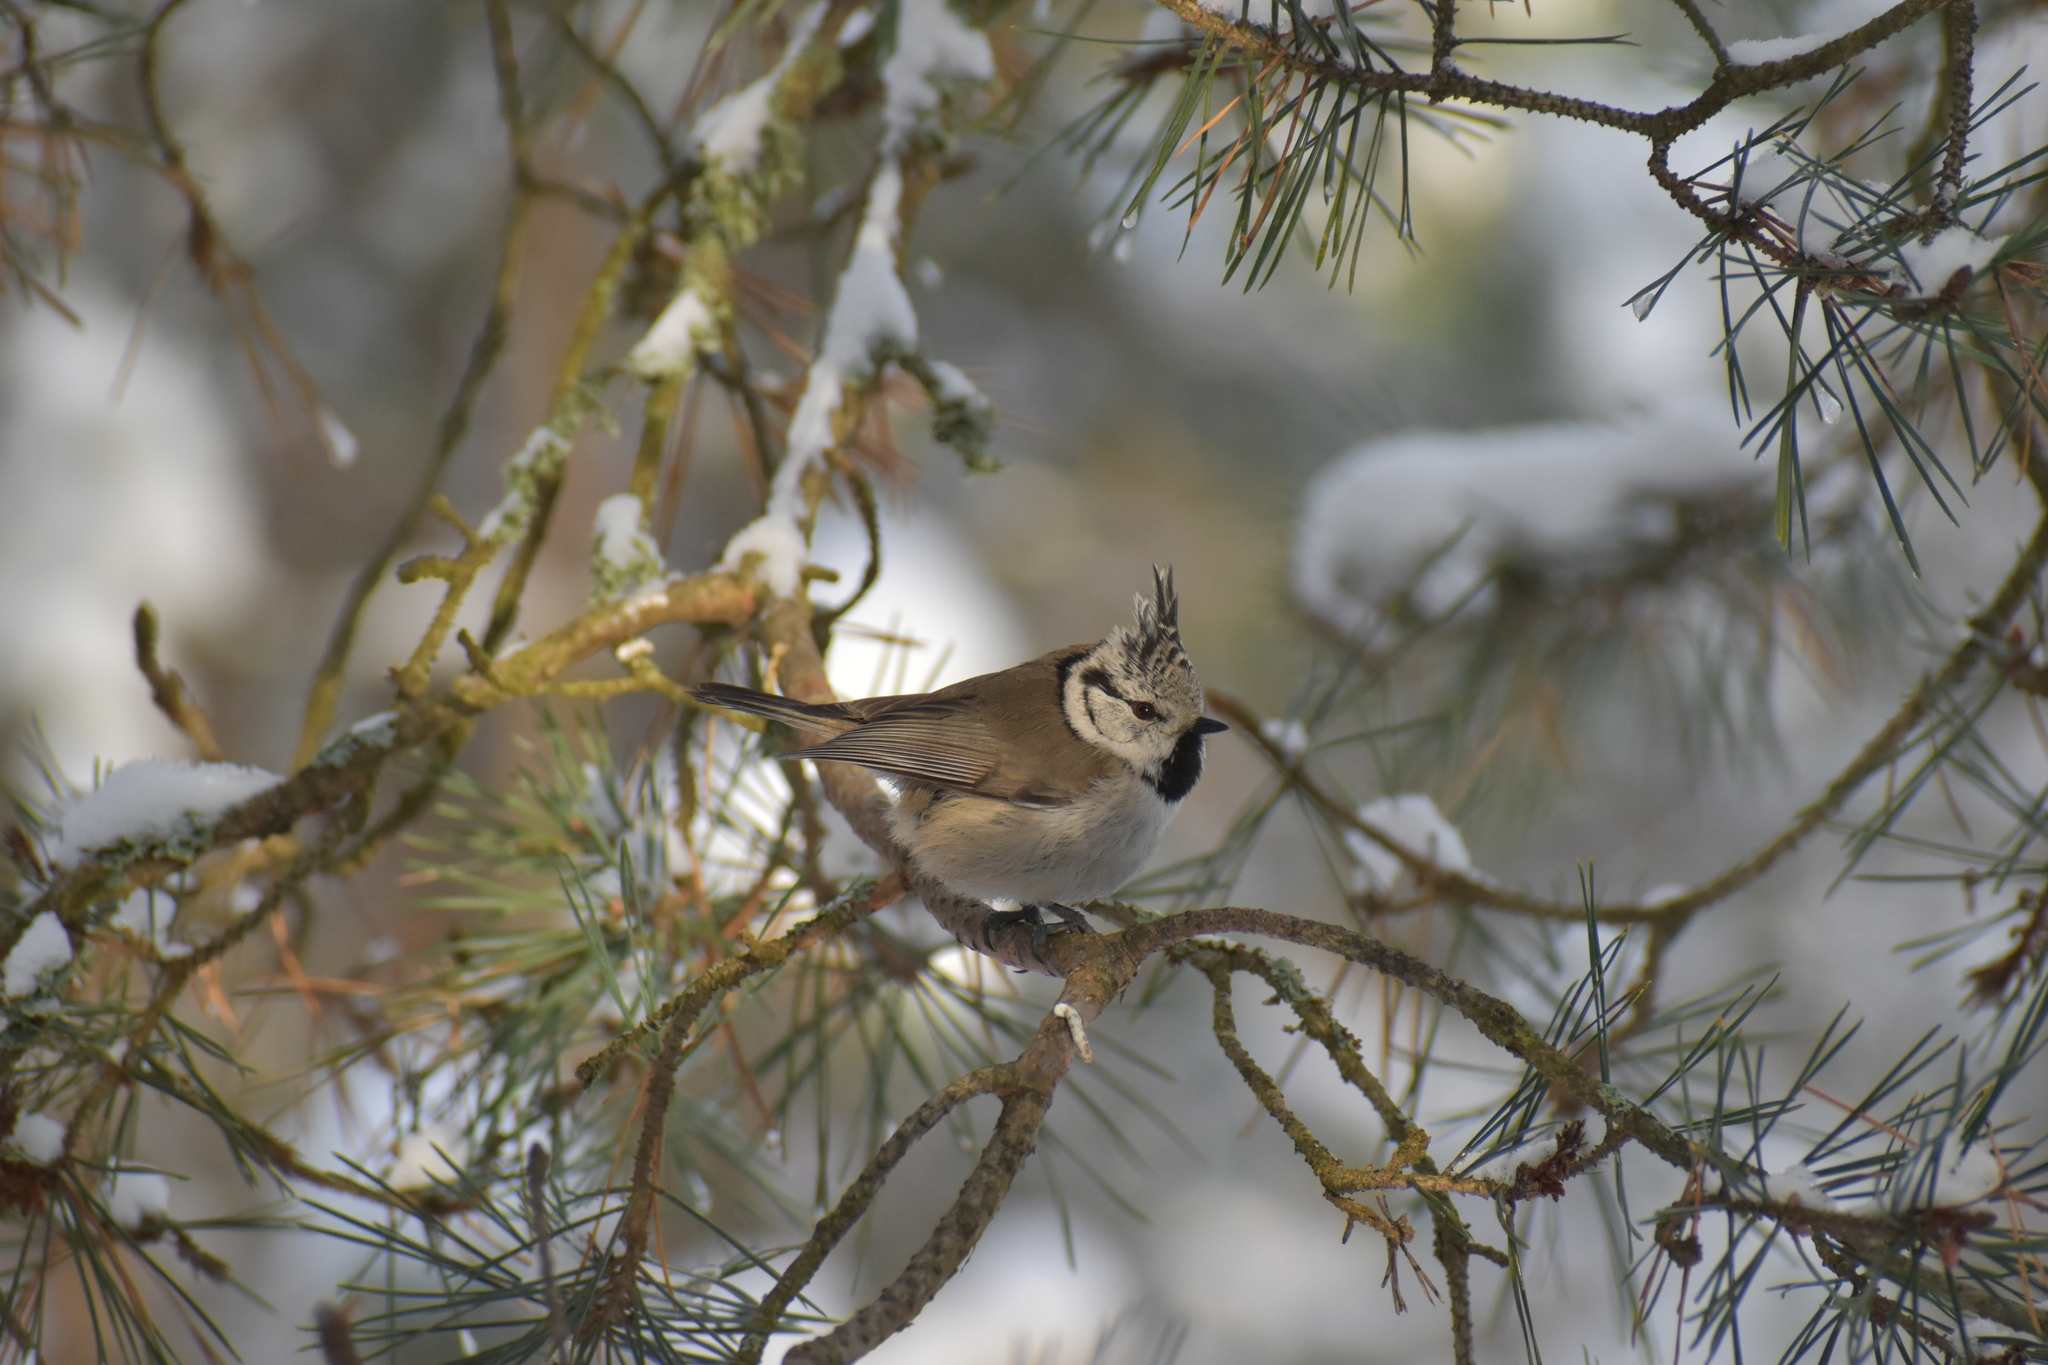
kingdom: Animalia
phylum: Chordata
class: Aves
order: Passeriformes
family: Paridae
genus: Lophophanes
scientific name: Lophophanes cristatus
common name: European crested tit
